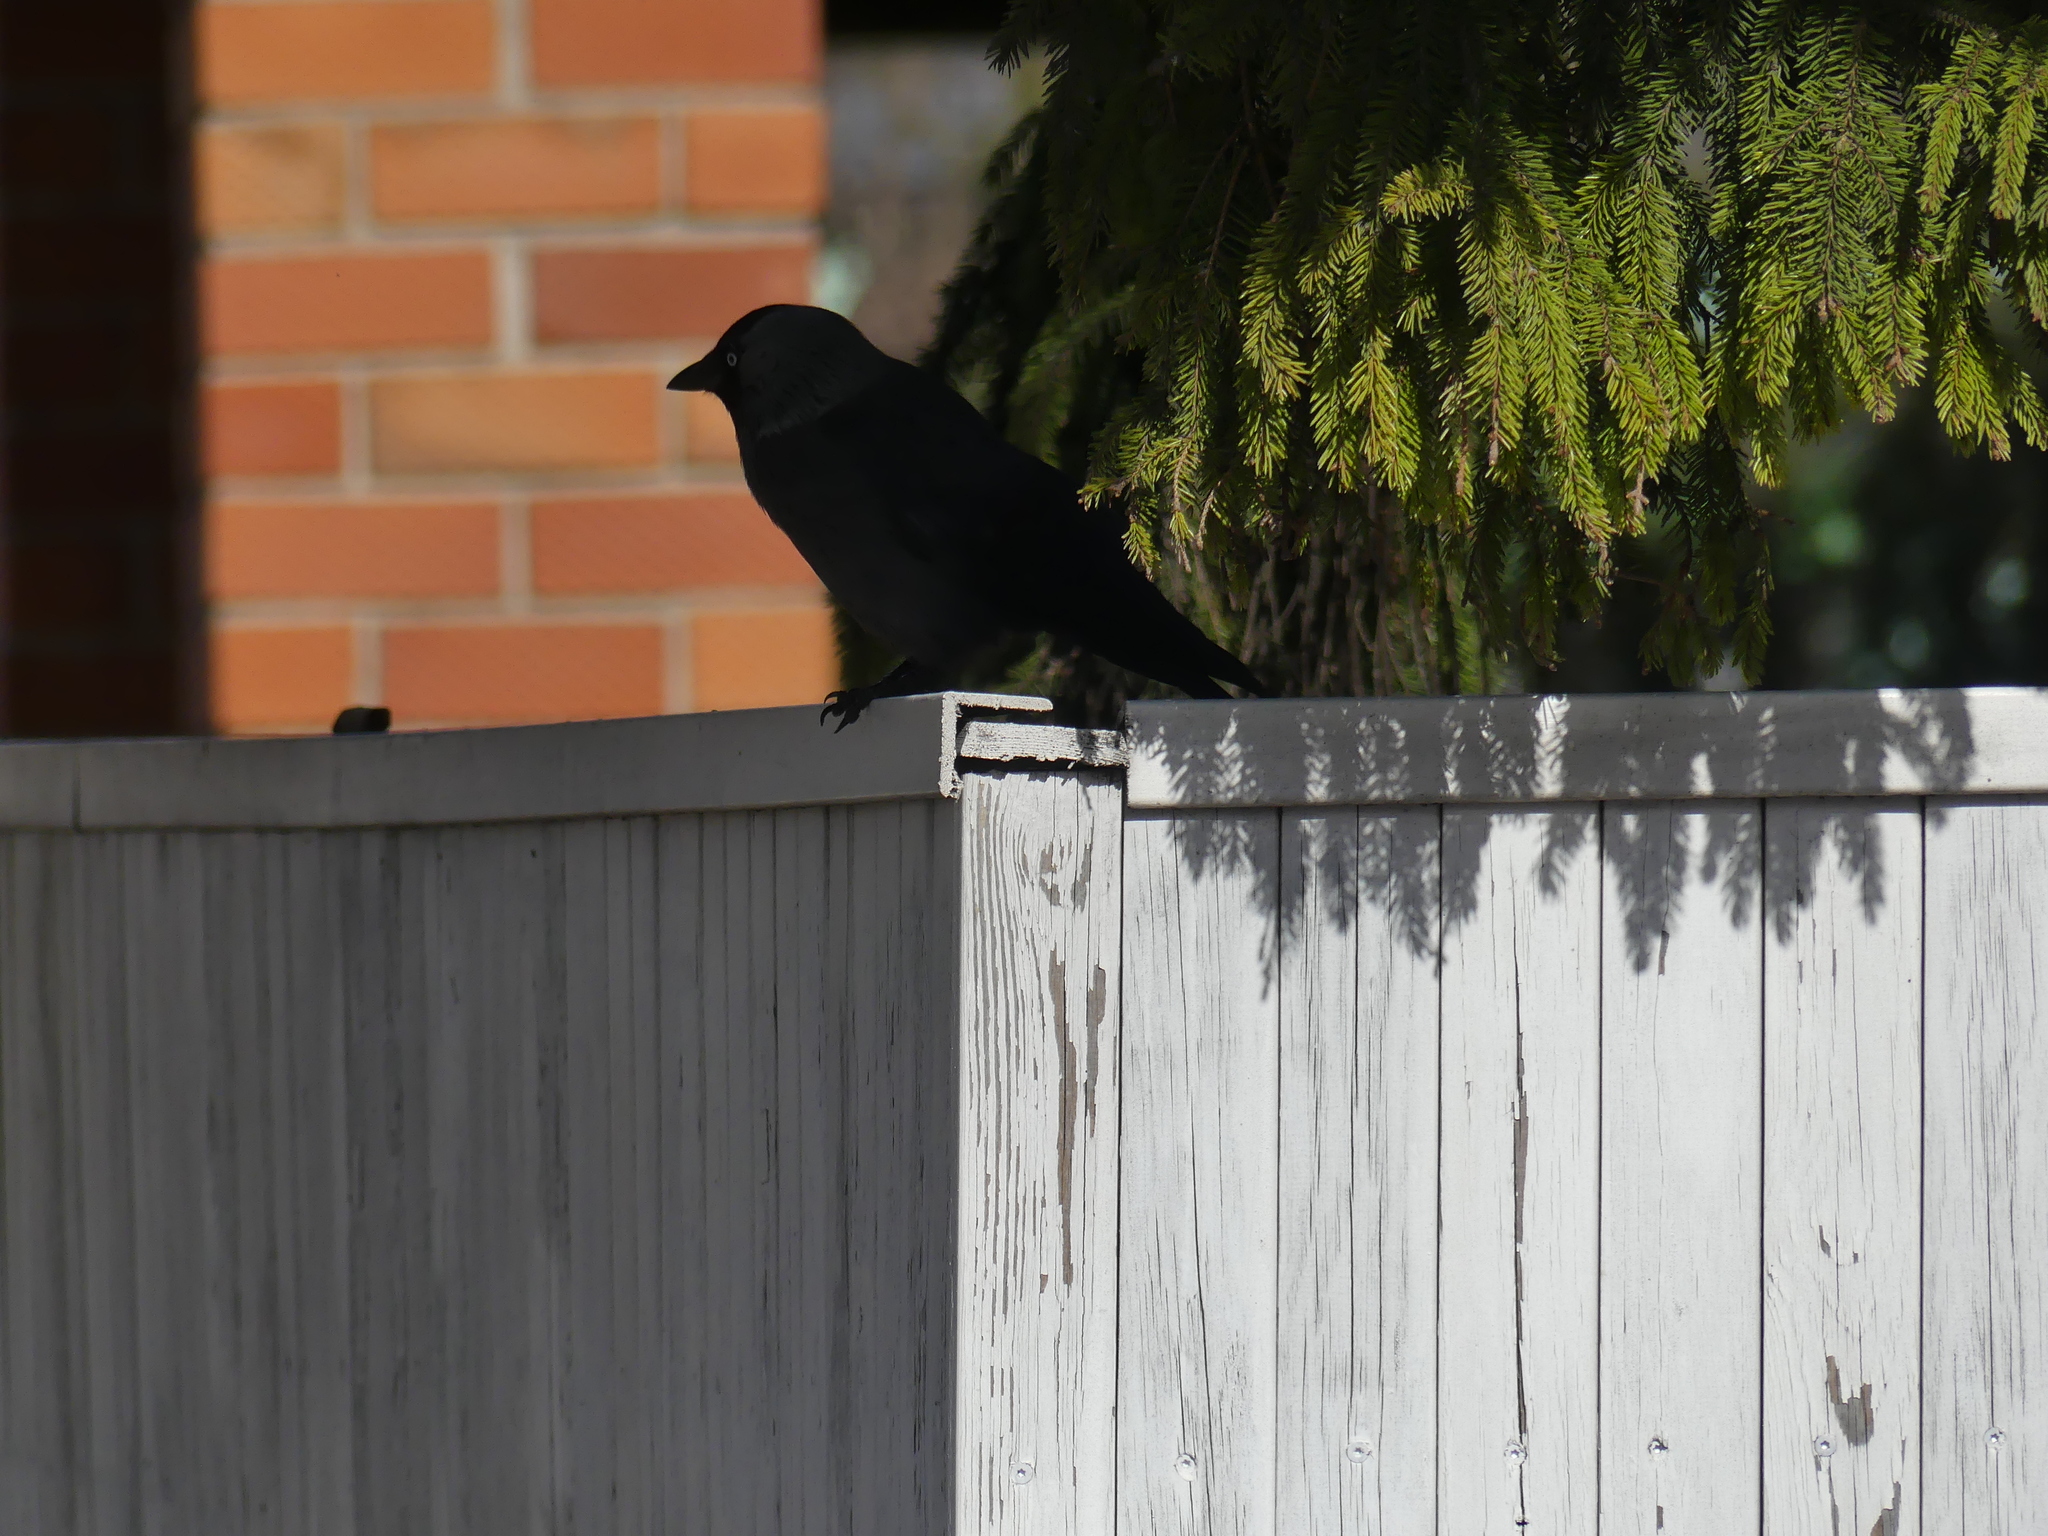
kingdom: Animalia
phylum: Chordata
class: Aves
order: Passeriformes
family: Corvidae
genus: Coloeus
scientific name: Coloeus monedula
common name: Western jackdaw
